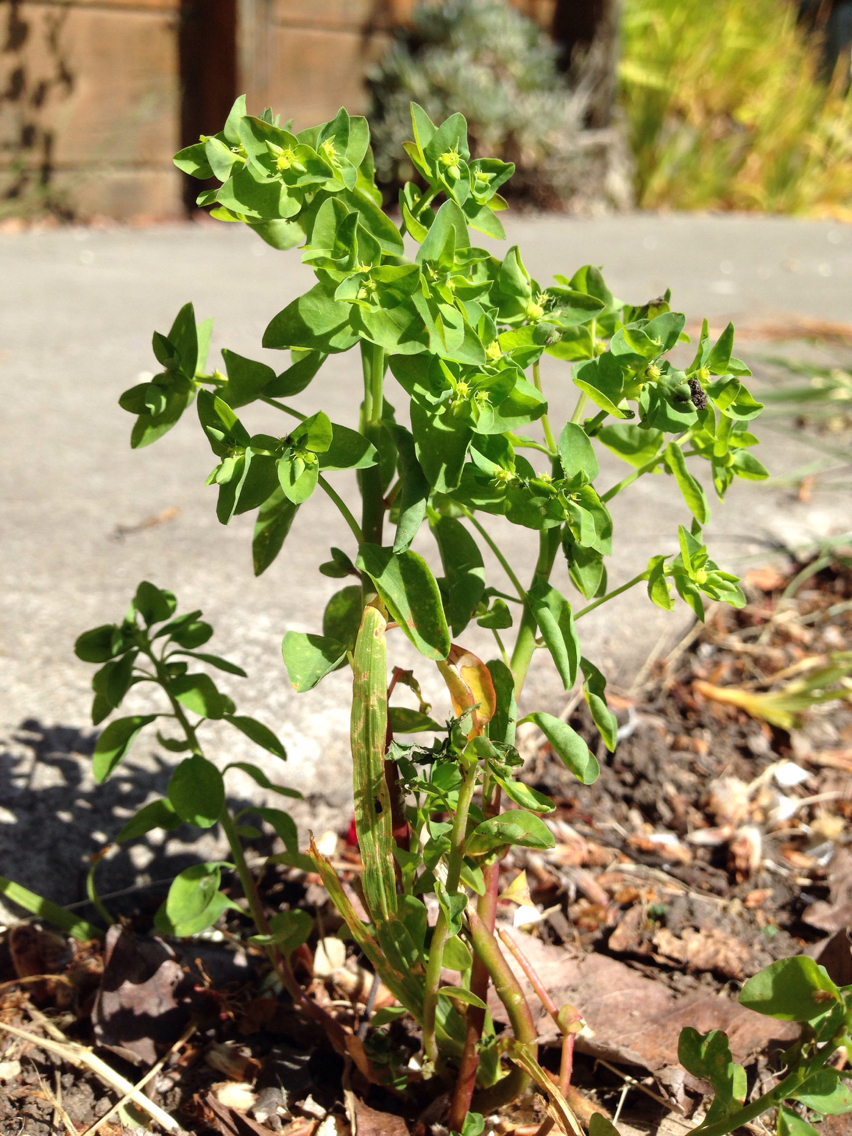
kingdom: Plantae
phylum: Tracheophyta
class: Magnoliopsida
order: Malpighiales
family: Euphorbiaceae
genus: Euphorbia
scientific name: Euphorbia peplus
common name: Petty spurge
